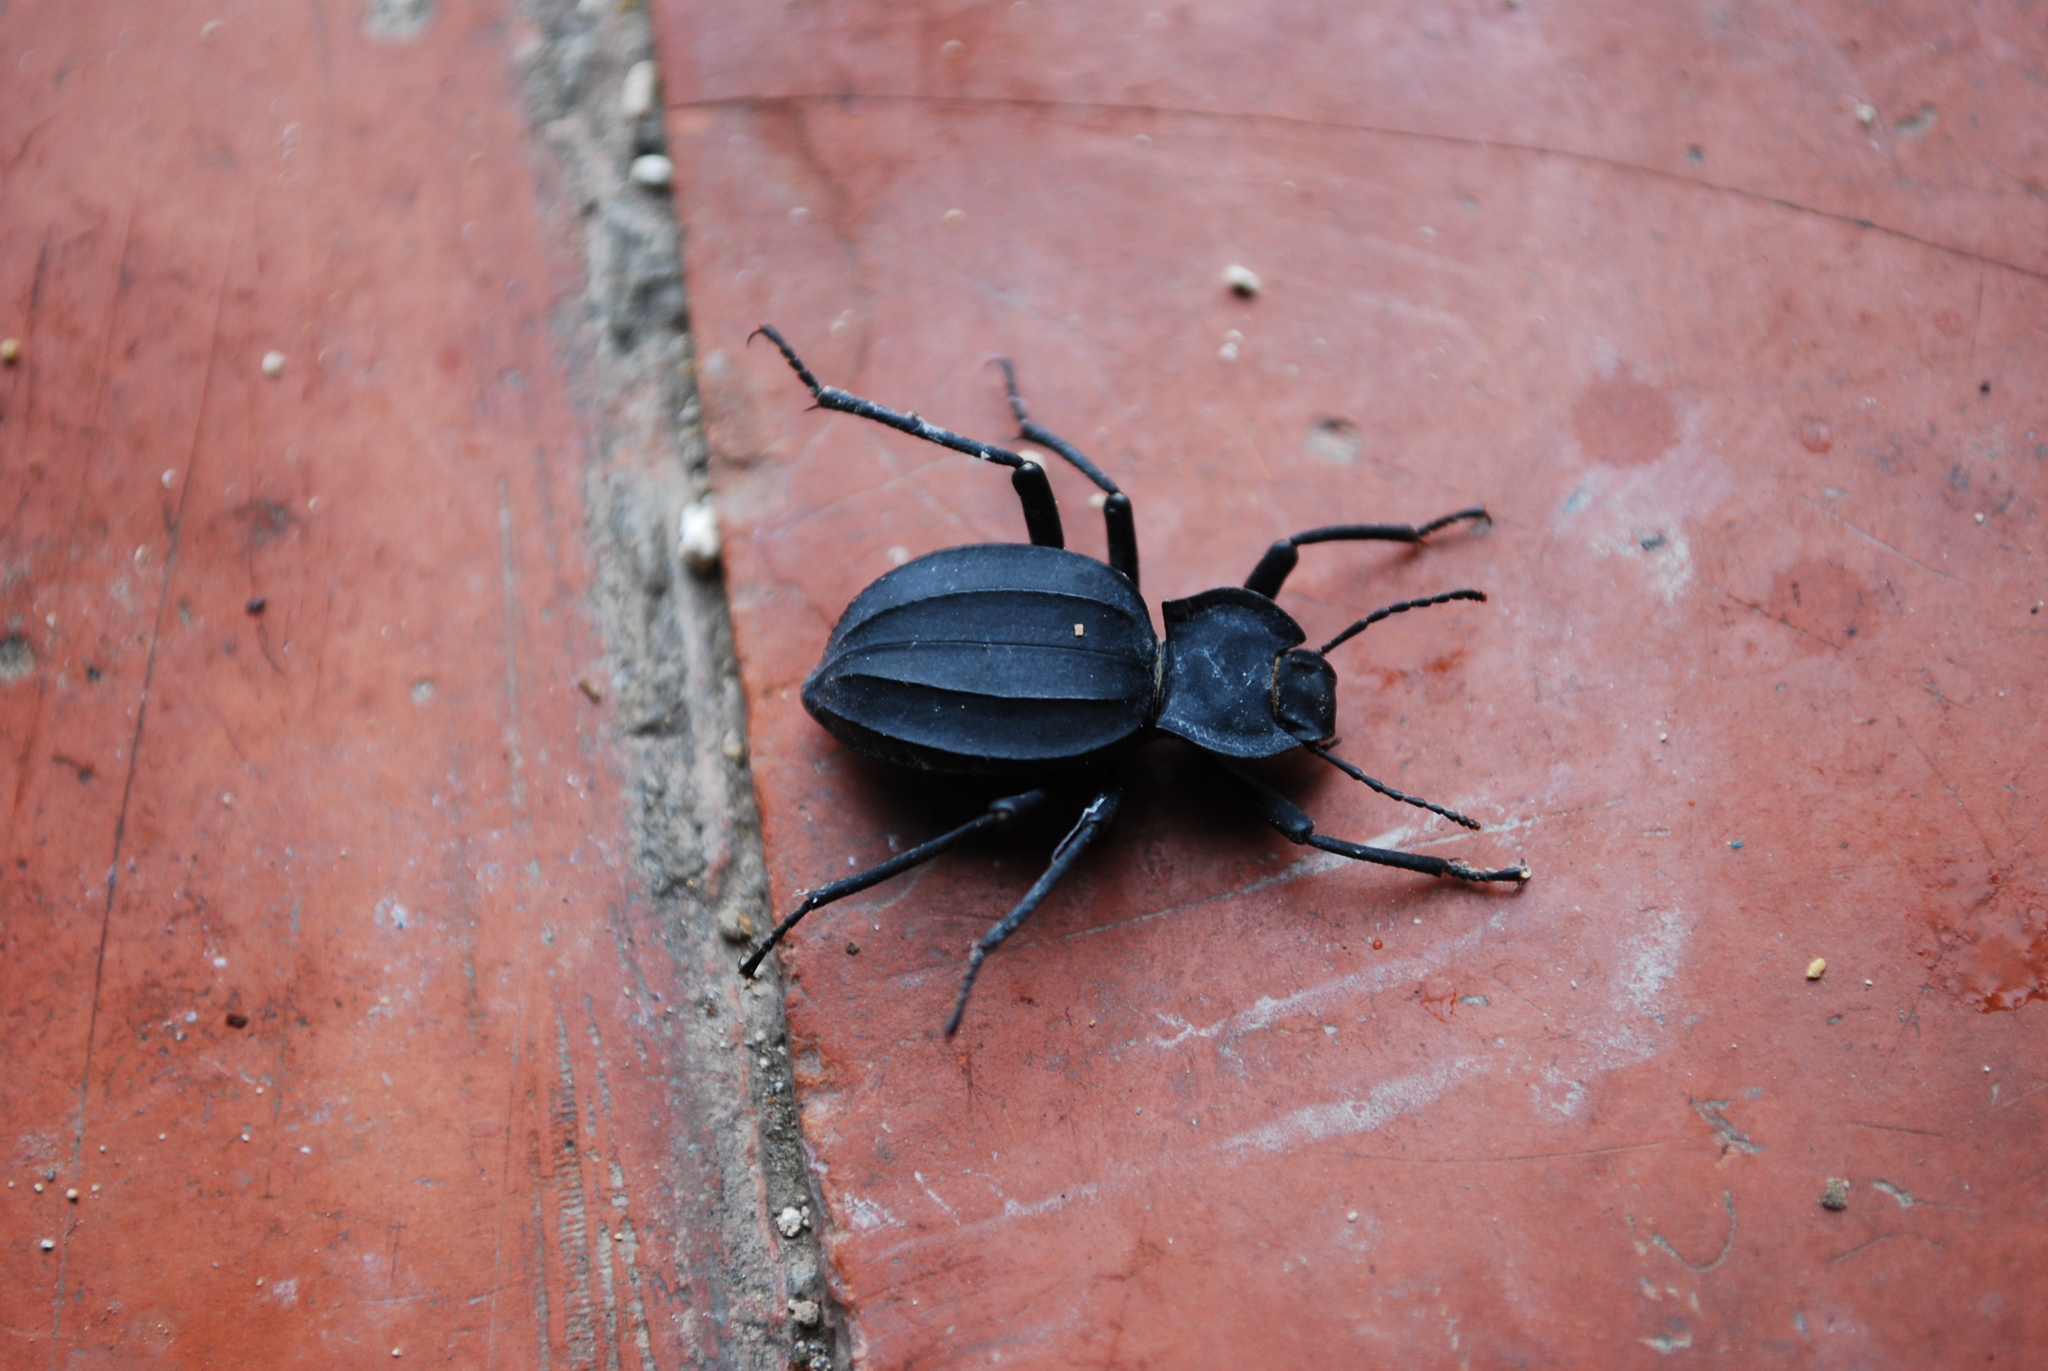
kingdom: Animalia
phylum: Arthropoda
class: Insecta
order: Coleoptera
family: Tenebrionidae
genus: Akis
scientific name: Akis
